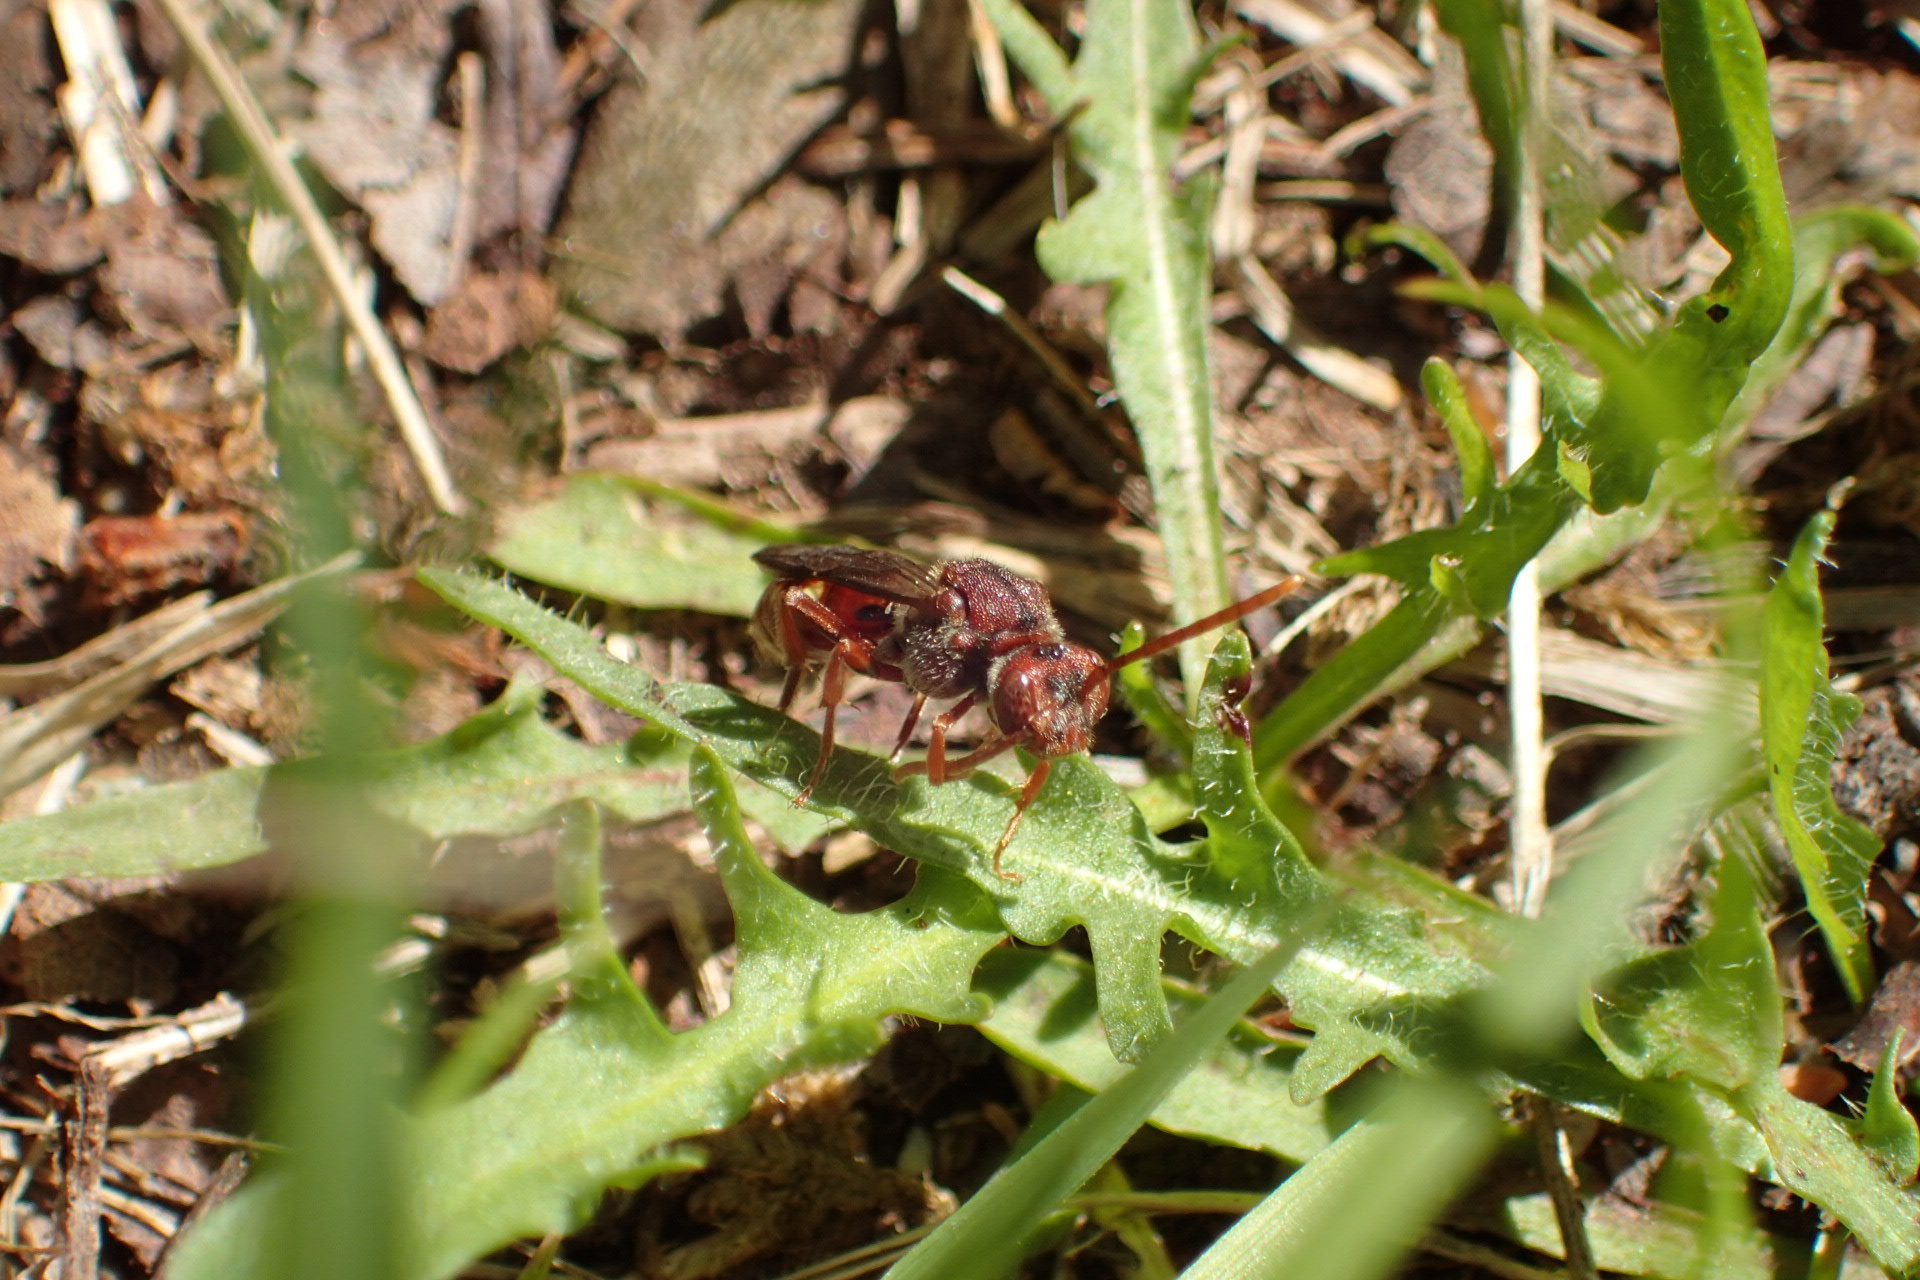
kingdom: Animalia
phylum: Arthropoda
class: Insecta
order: Hymenoptera
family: Apidae
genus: Nomada
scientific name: Nomada
